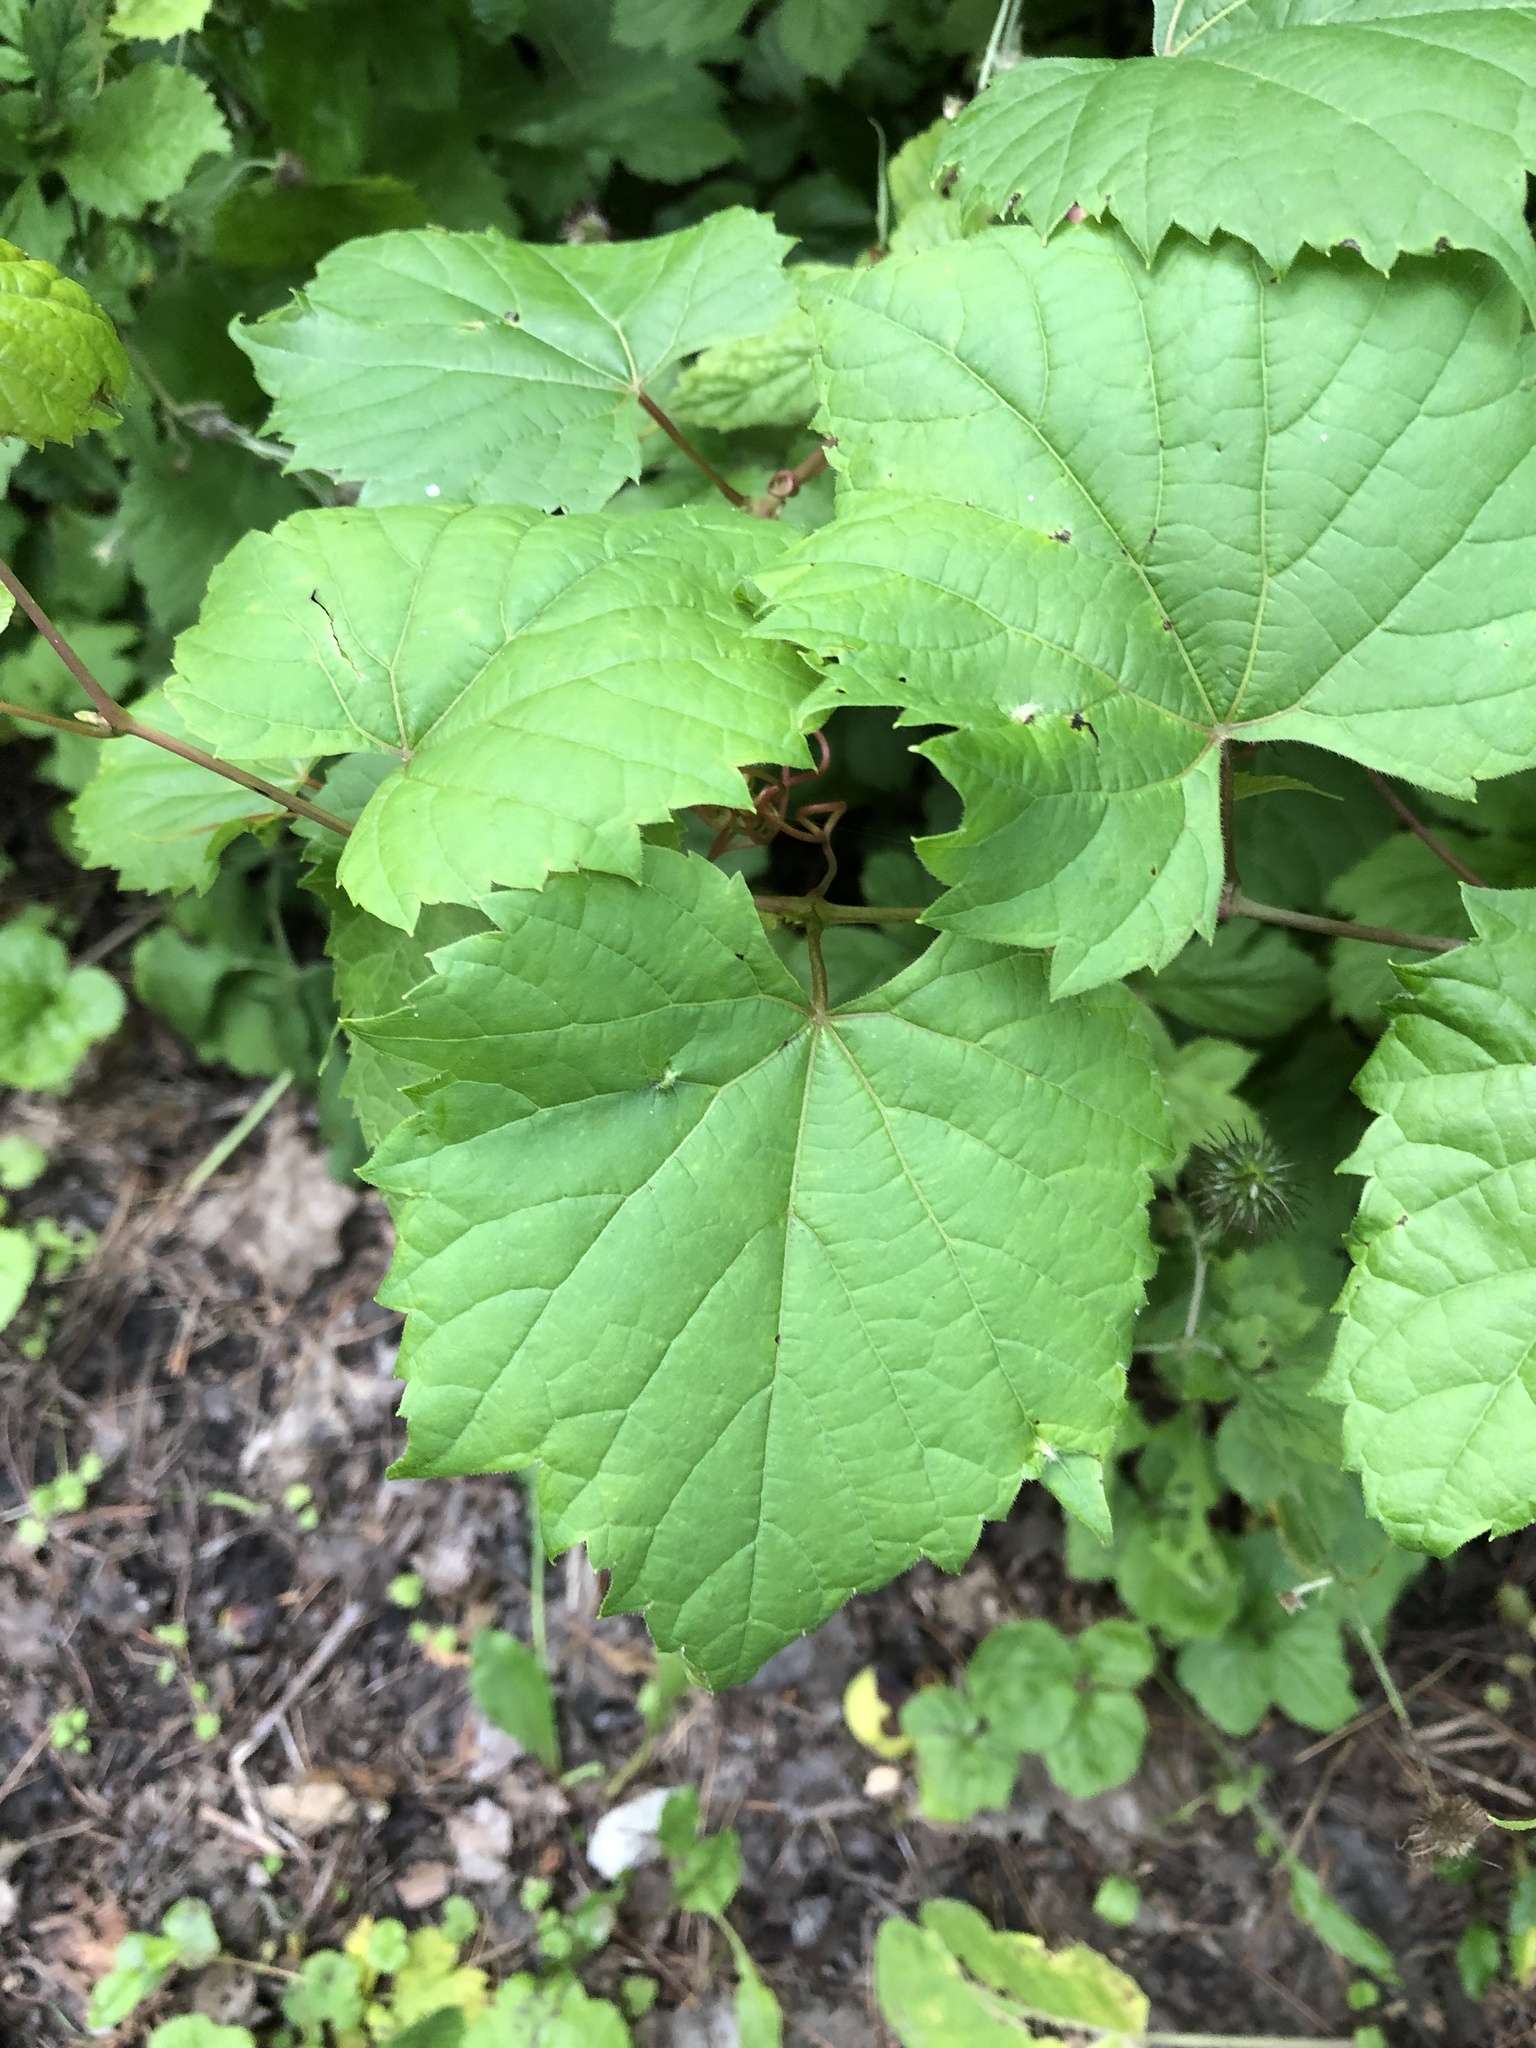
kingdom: Plantae
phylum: Tracheophyta
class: Magnoliopsida
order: Vitales
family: Vitaceae
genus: Vitis
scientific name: Vitis riparia
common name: Frost grape
